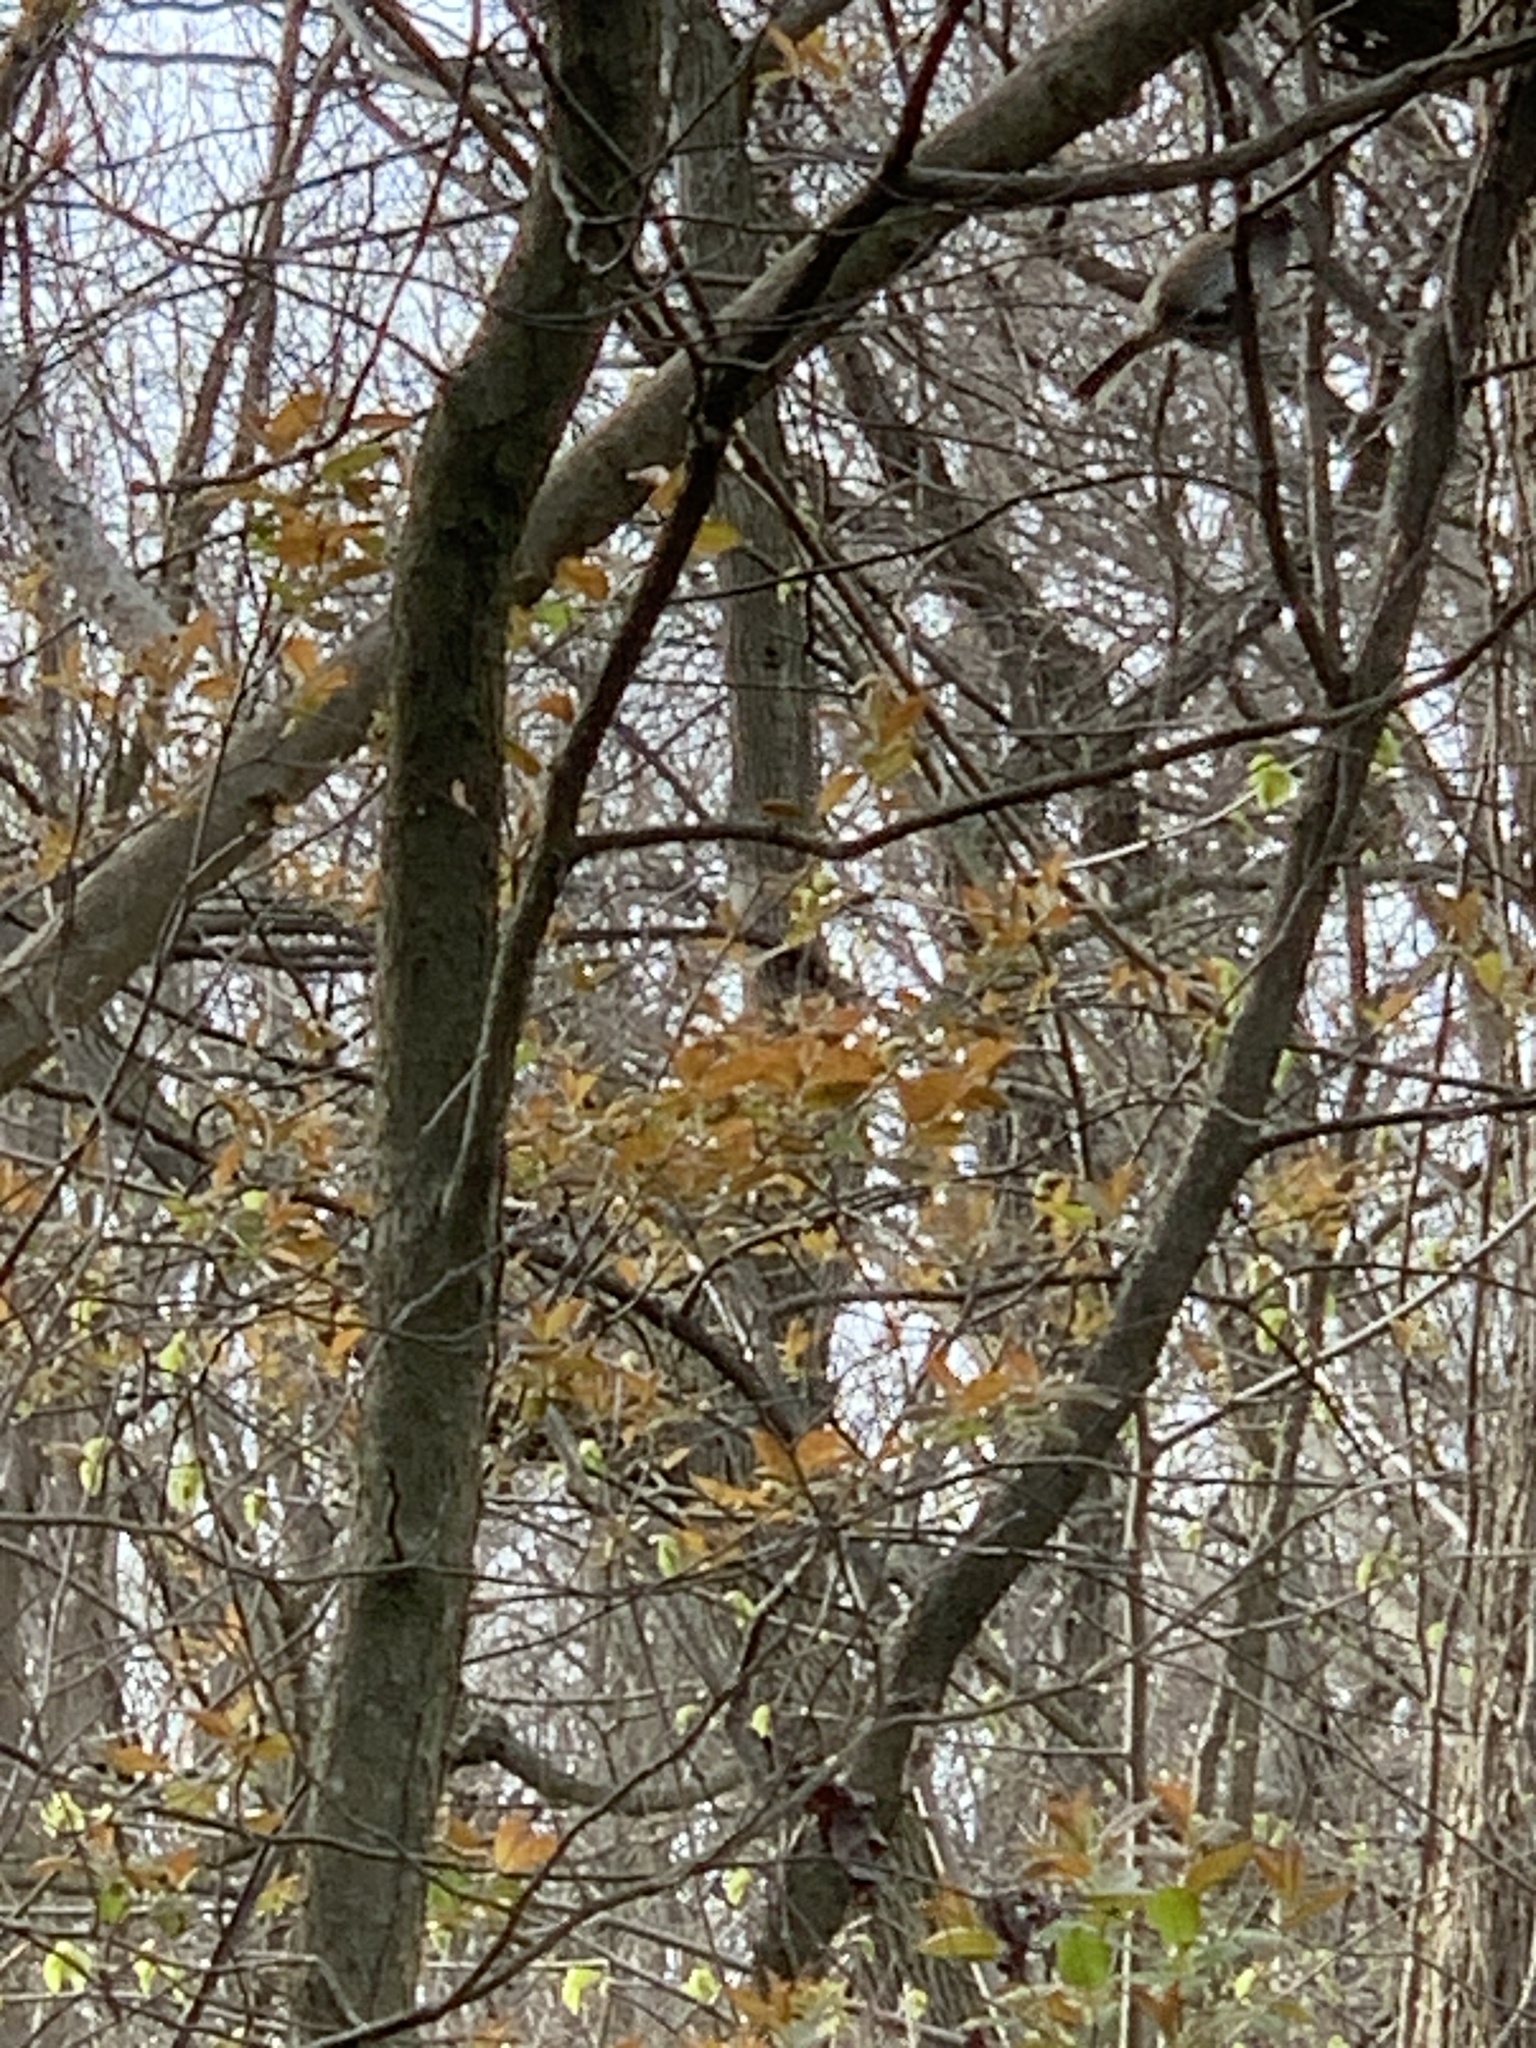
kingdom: Animalia
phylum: Chordata
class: Aves
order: Passeriformes
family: Passerellidae
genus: Melospiza
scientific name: Melospiza georgiana
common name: Swamp sparrow
